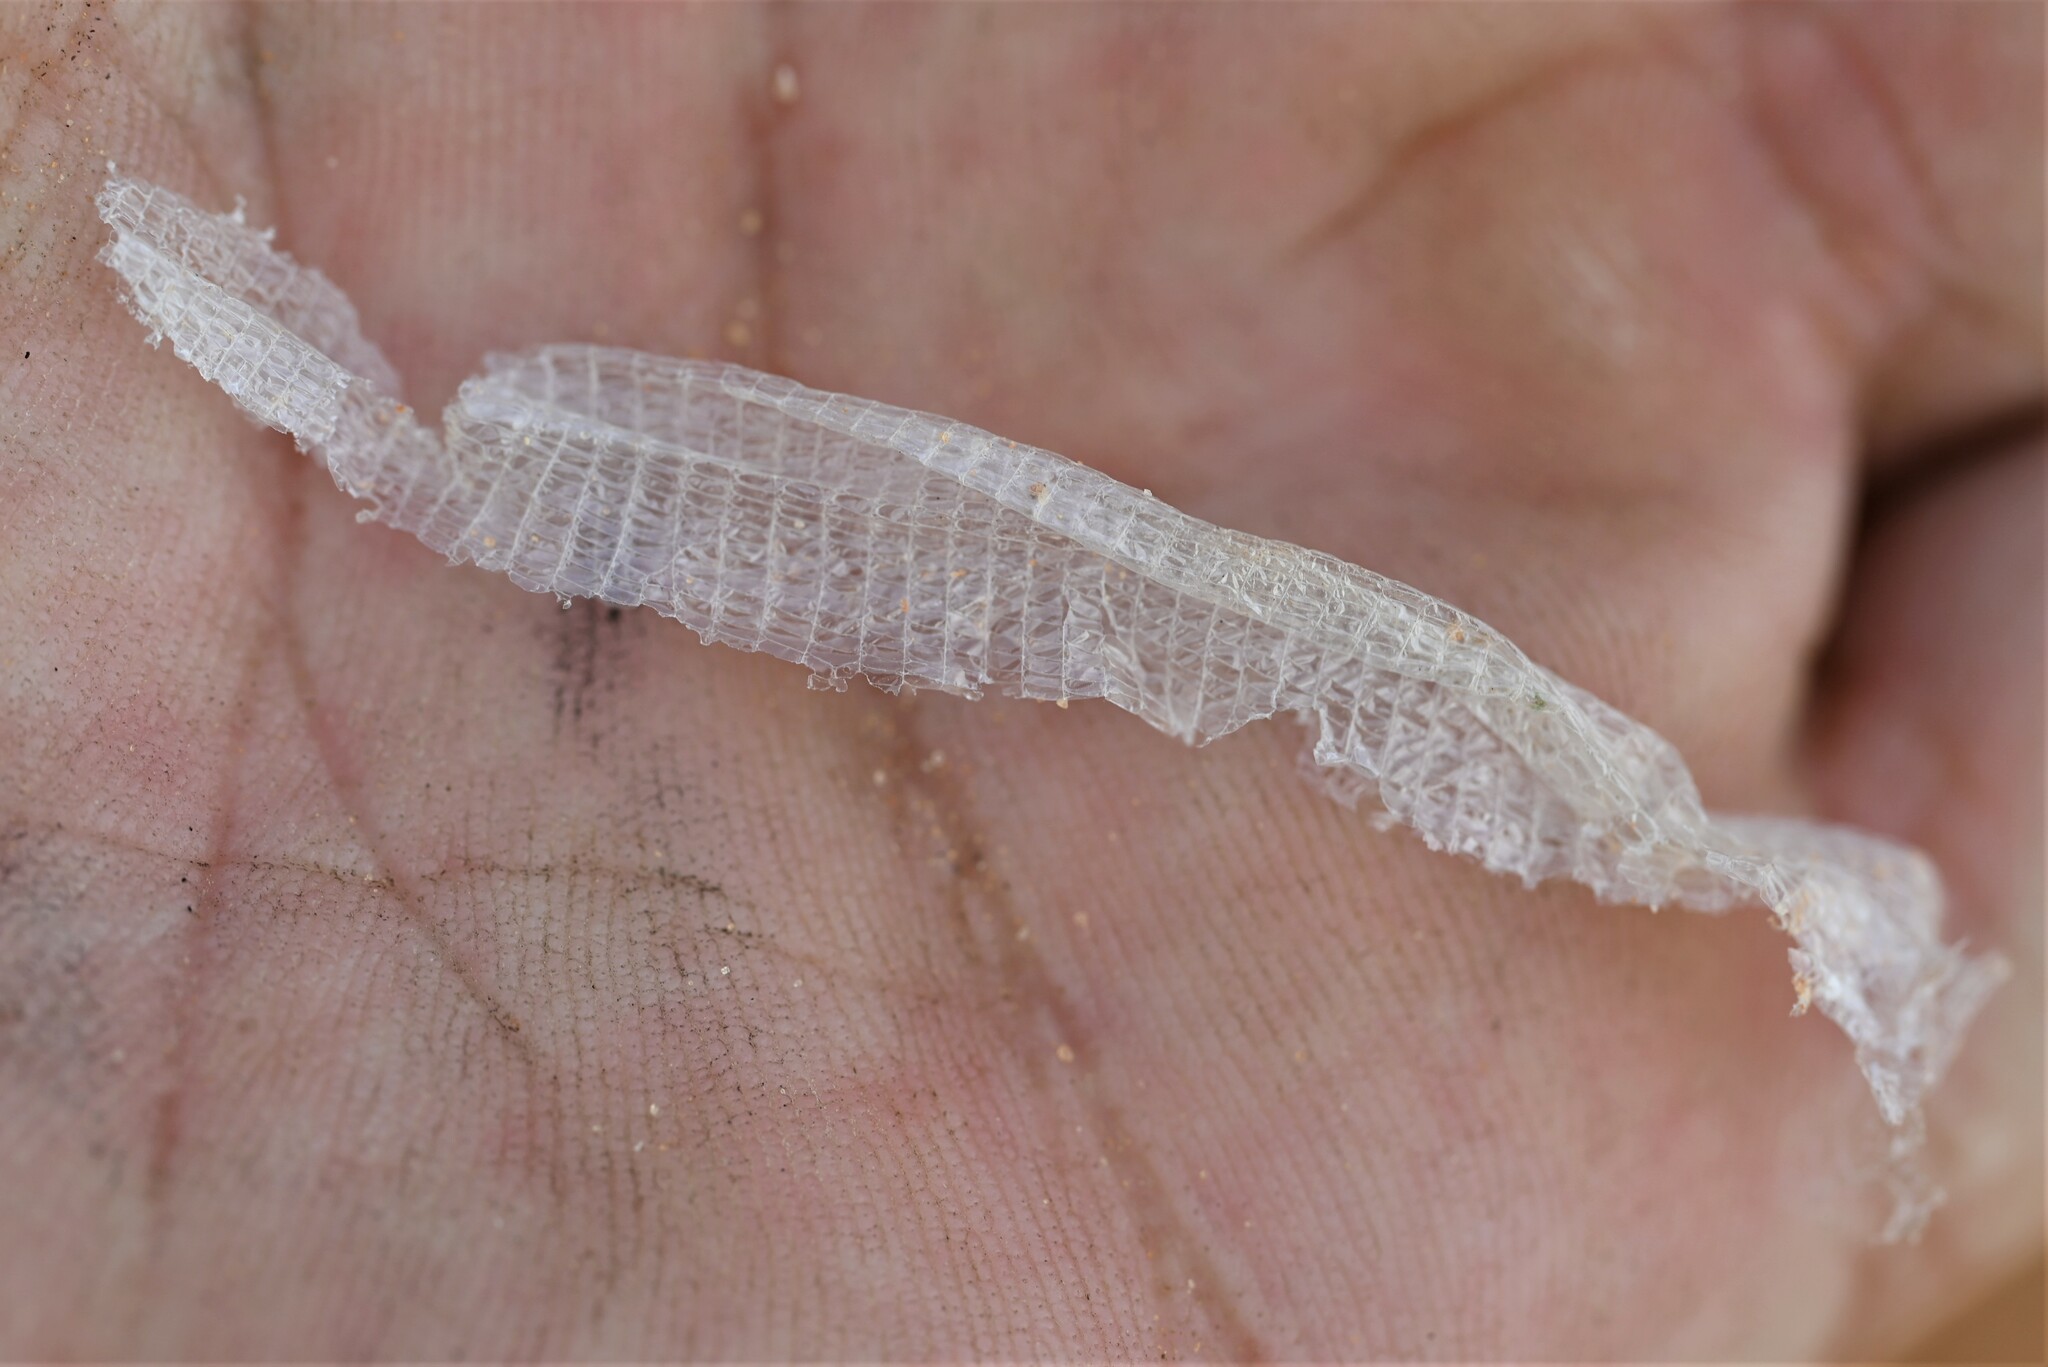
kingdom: Animalia
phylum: Chordata
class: Squamata
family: Trogonophidae
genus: Diplometopon
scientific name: Diplometopon zarudnyi
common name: Zarudnyi's worm lizard
